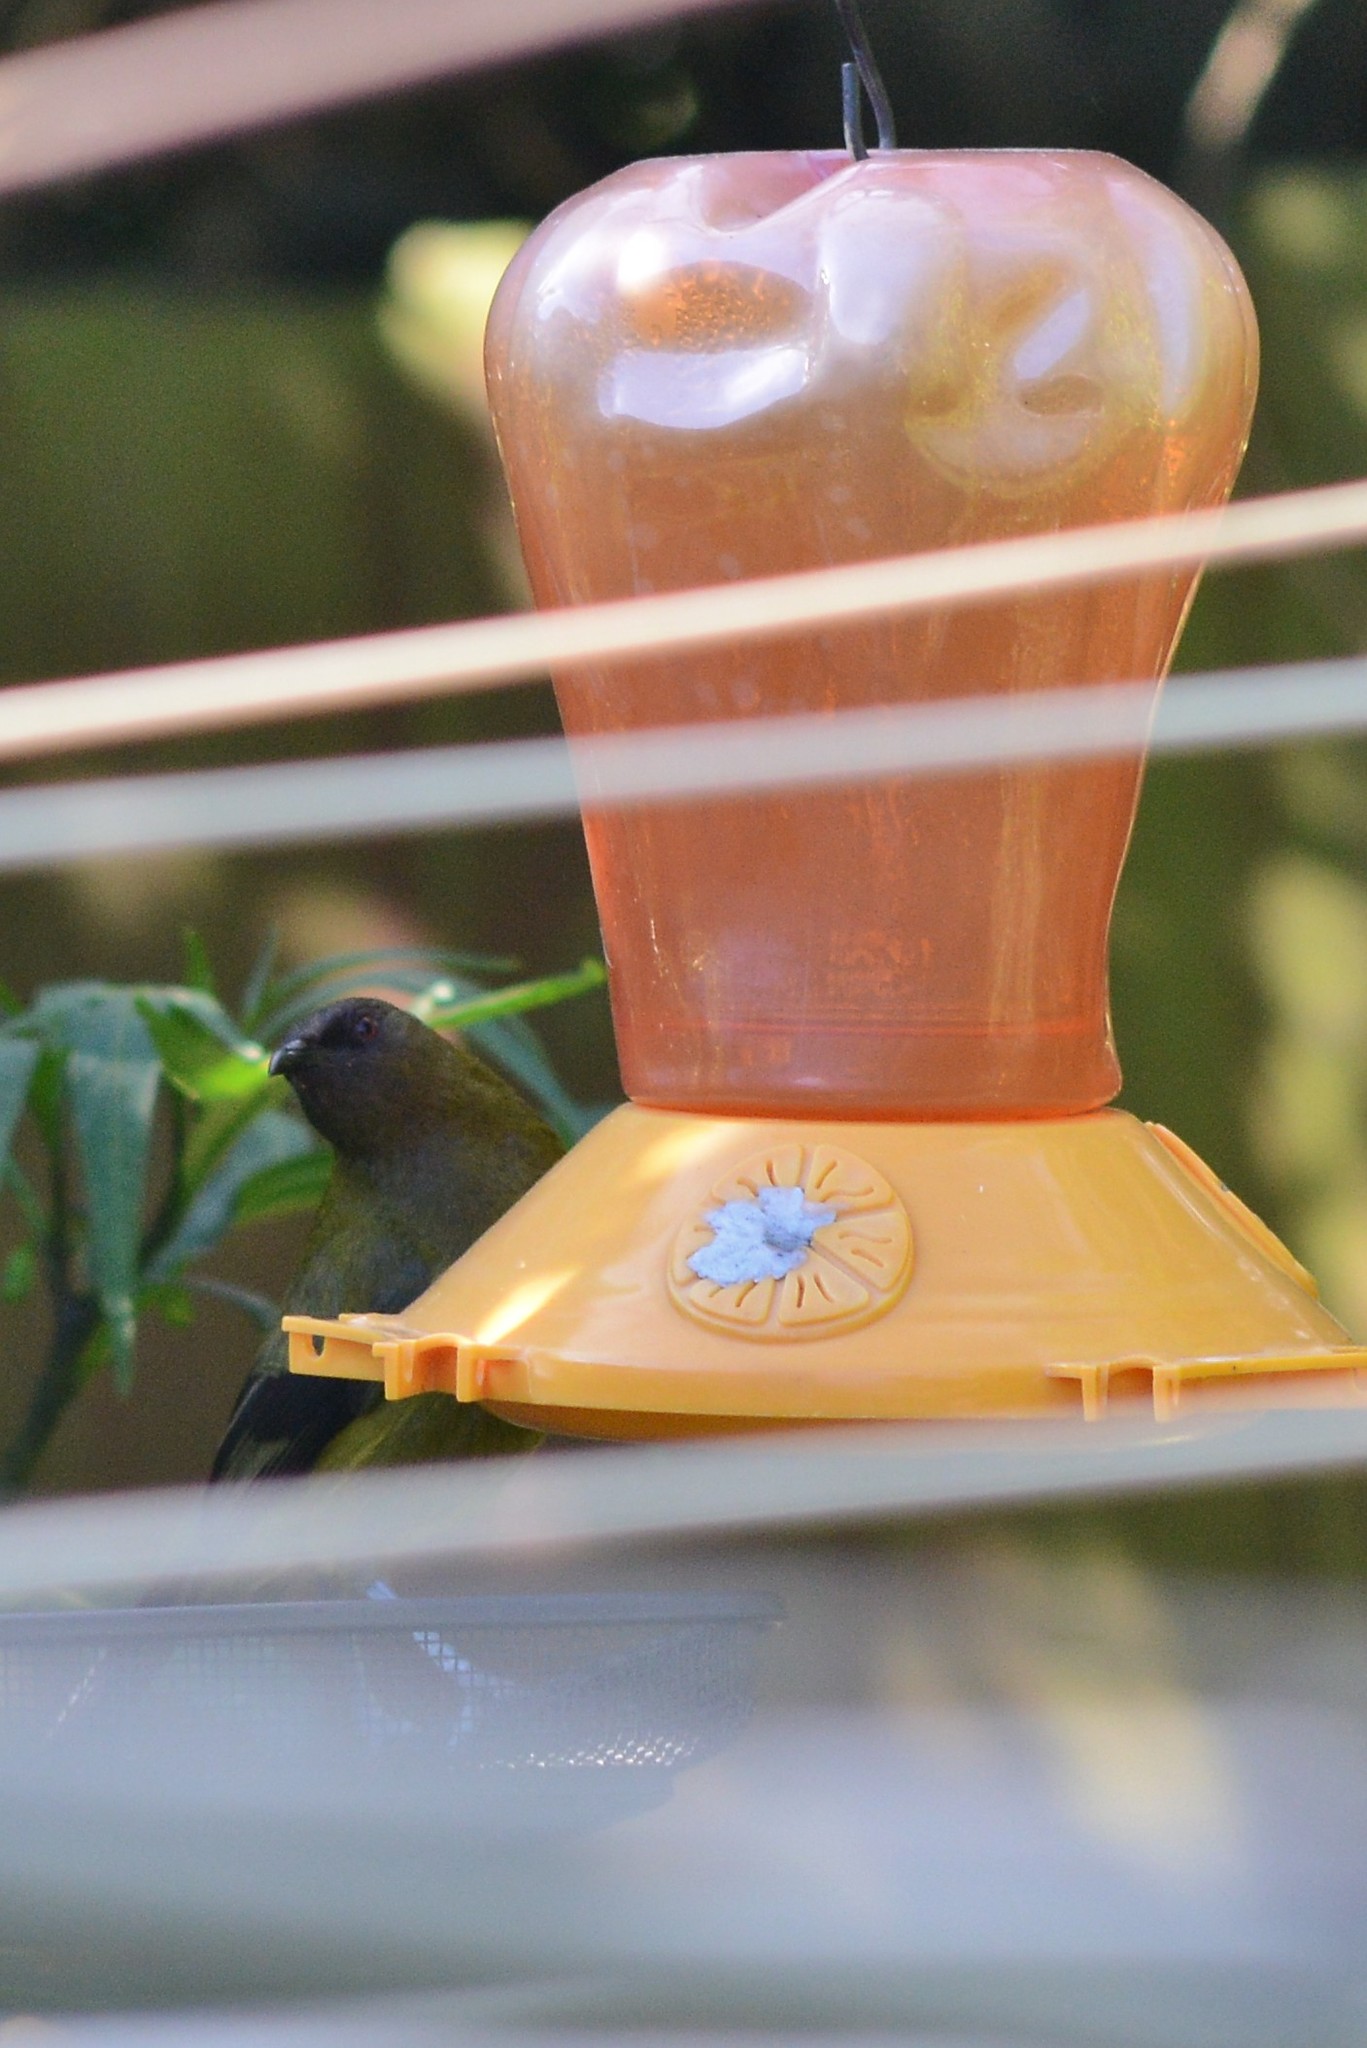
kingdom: Animalia
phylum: Chordata
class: Aves
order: Passeriformes
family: Meliphagidae
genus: Anthornis
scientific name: Anthornis melanura
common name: New zealand bellbird
